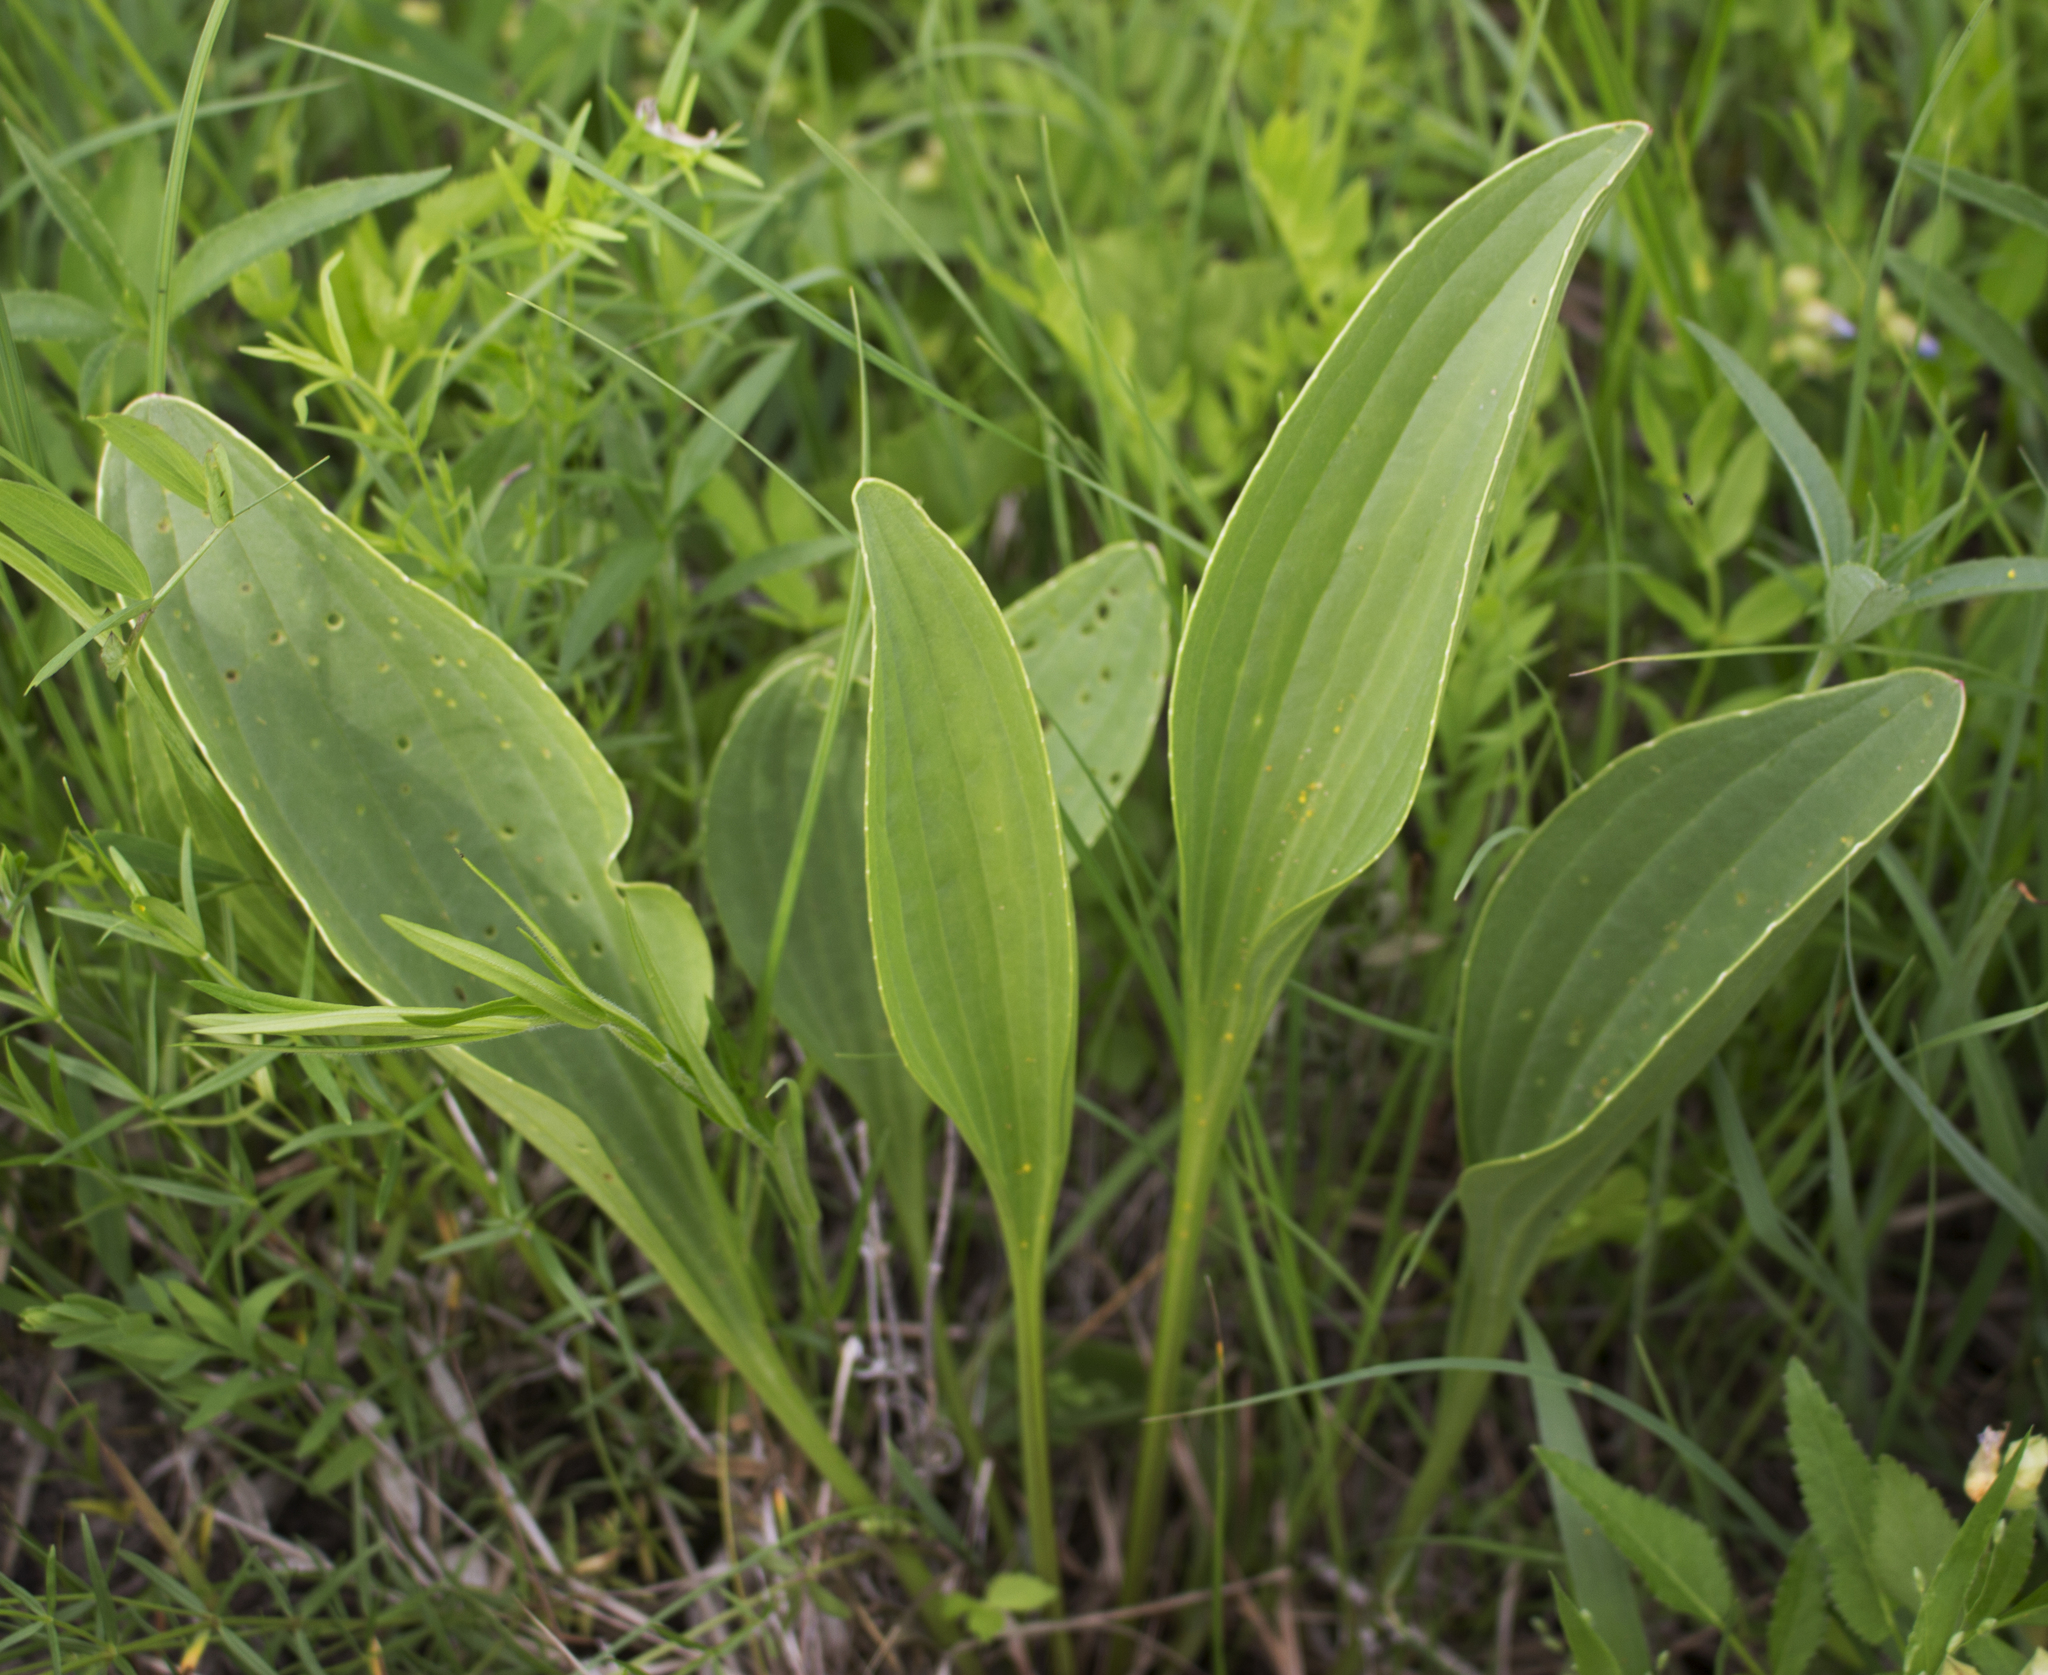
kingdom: Plantae
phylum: Tracheophyta
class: Magnoliopsida
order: Asterales
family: Asteraceae
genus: Arnoglossum
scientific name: Arnoglossum plantagineum
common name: Groove-stemmed indian-plantain
